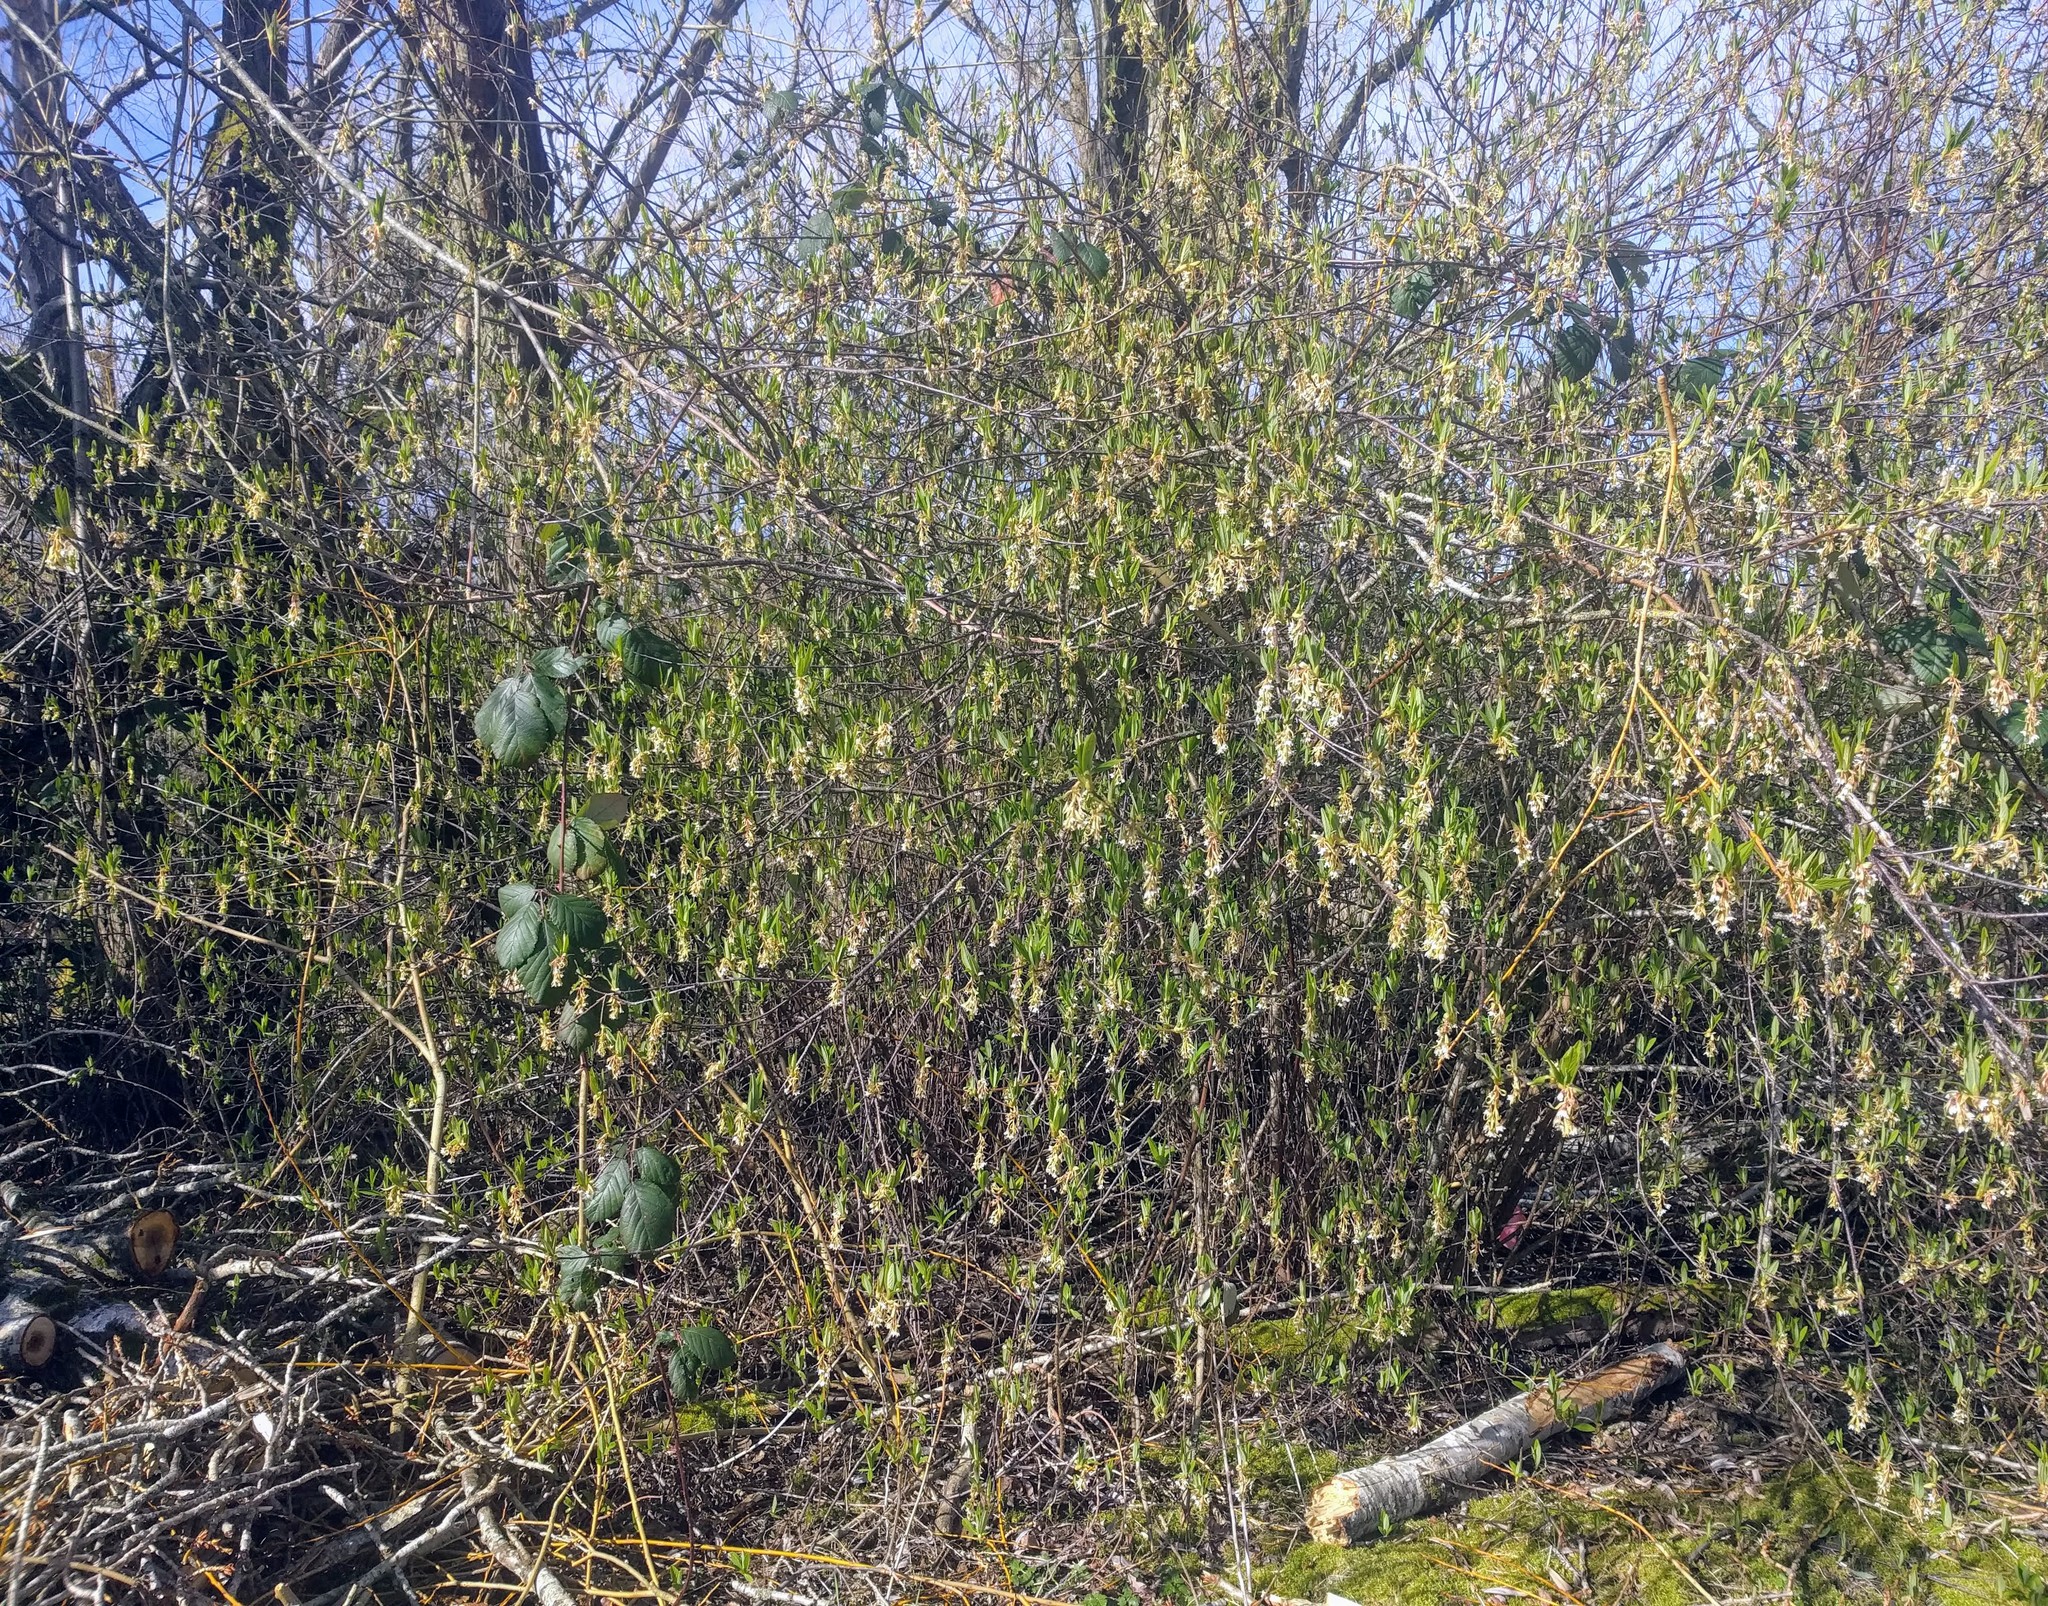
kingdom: Plantae
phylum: Tracheophyta
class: Magnoliopsida
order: Rosales
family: Rosaceae
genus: Oemleria
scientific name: Oemleria cerasiformis
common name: Osoberry
